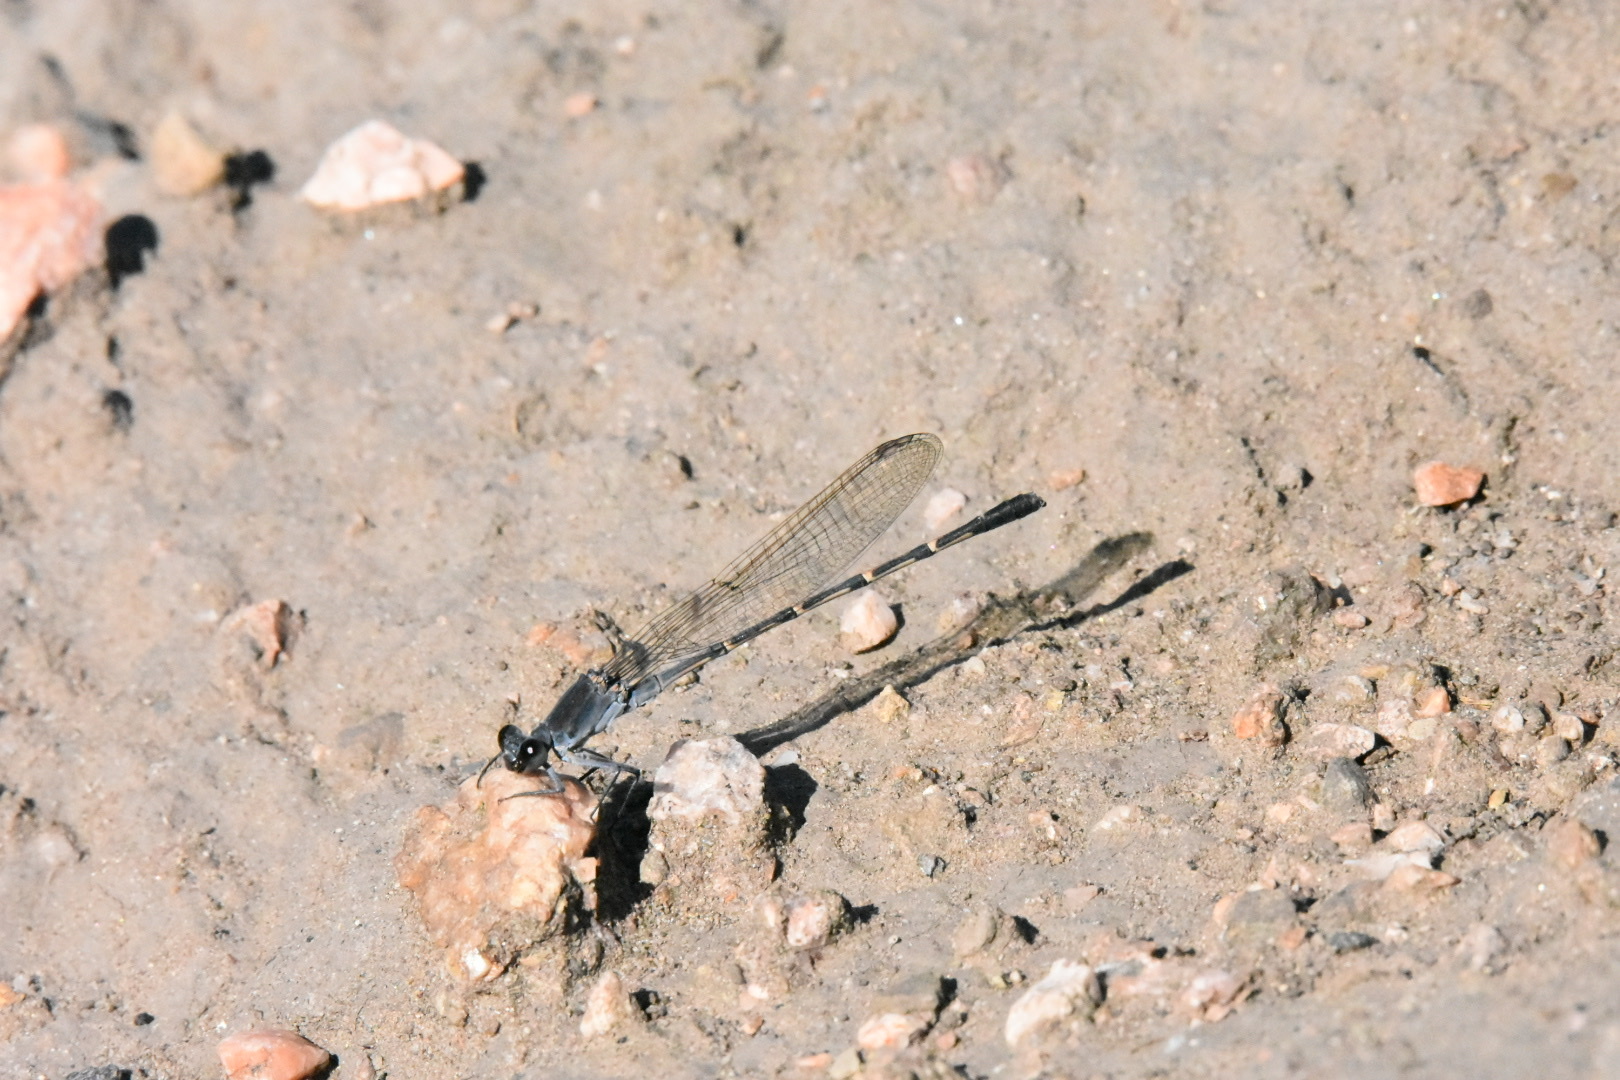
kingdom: Animalia
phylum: Arthropoda
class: Insecta
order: Odonata
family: Coenagrionidae
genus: Argia
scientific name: Argia lugens
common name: Sooty dancer
